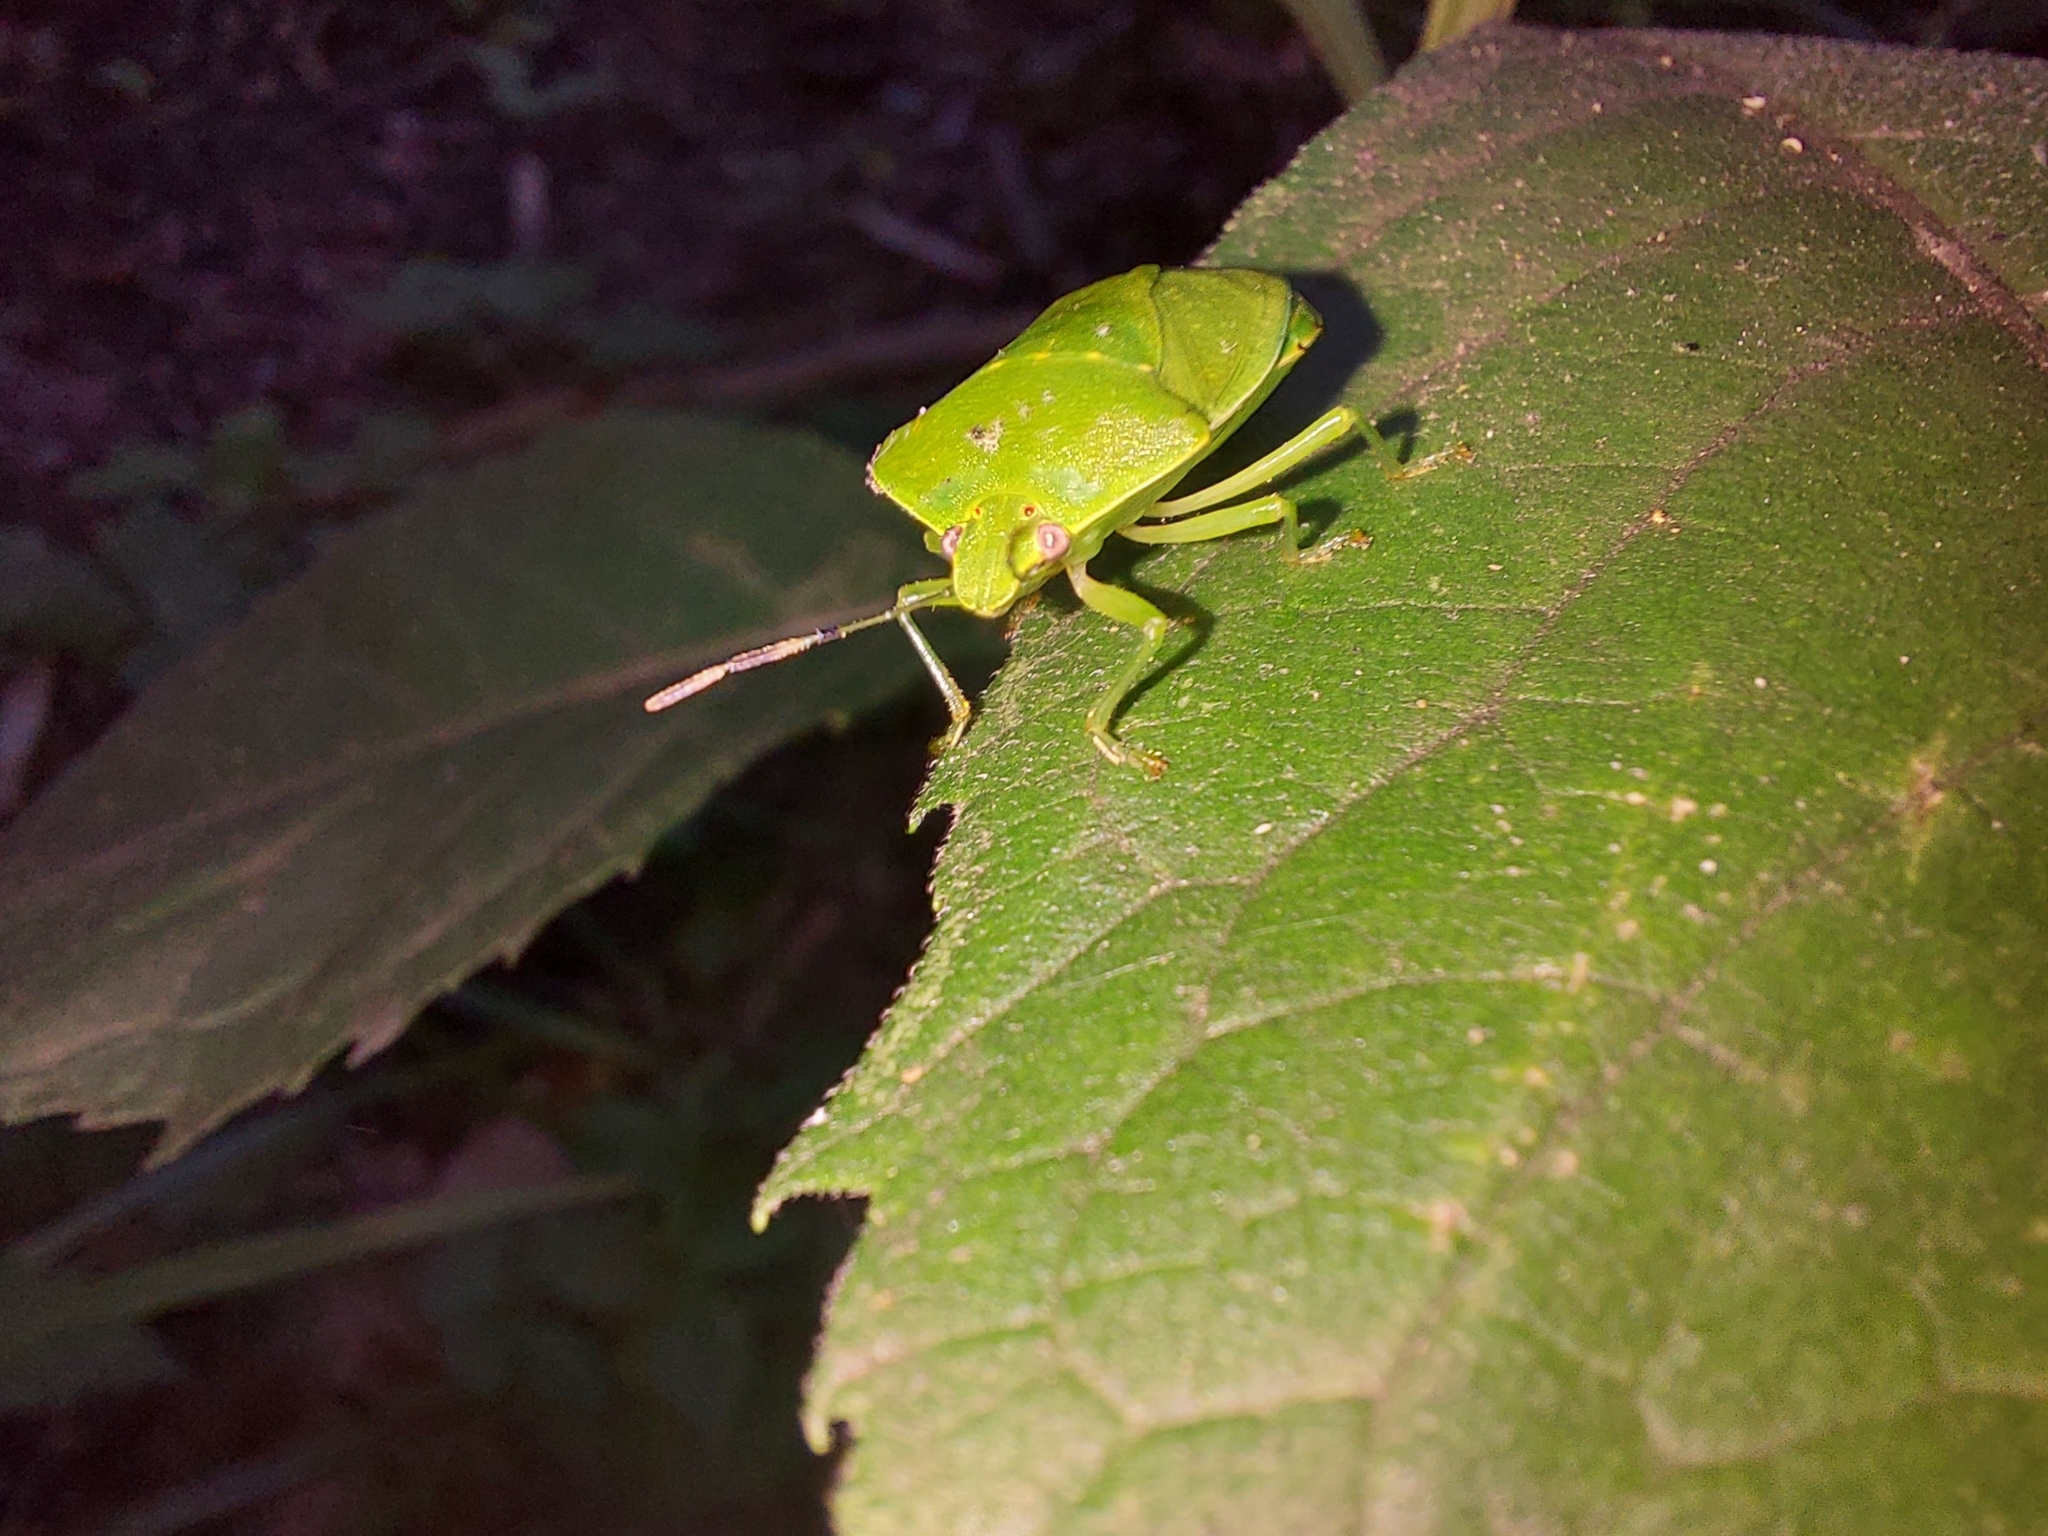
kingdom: Animalia
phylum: Arthropoda
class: Insecta
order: Hemiptera
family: Pentatomidae
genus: Chinavia
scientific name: Chinavia hilaris
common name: Green stink bug
